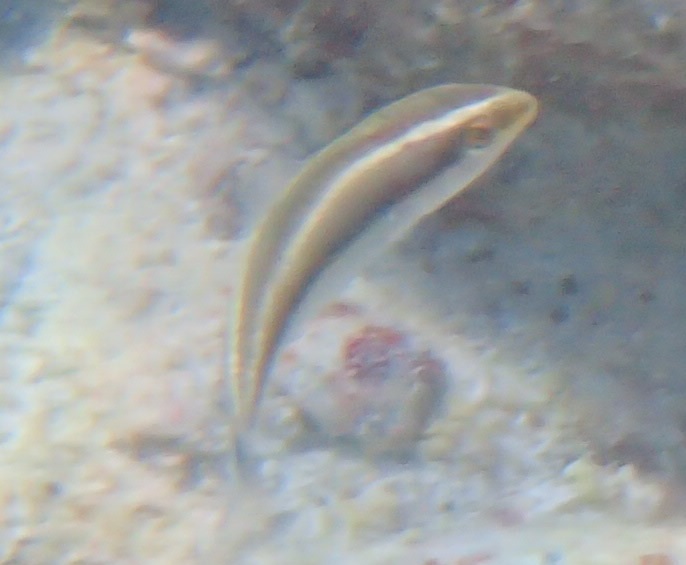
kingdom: Animalia
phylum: Chordata
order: Perciformes
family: Labridae
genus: Stethojulis
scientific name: Stethojulis interrupta
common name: Cutribbon wrasse
